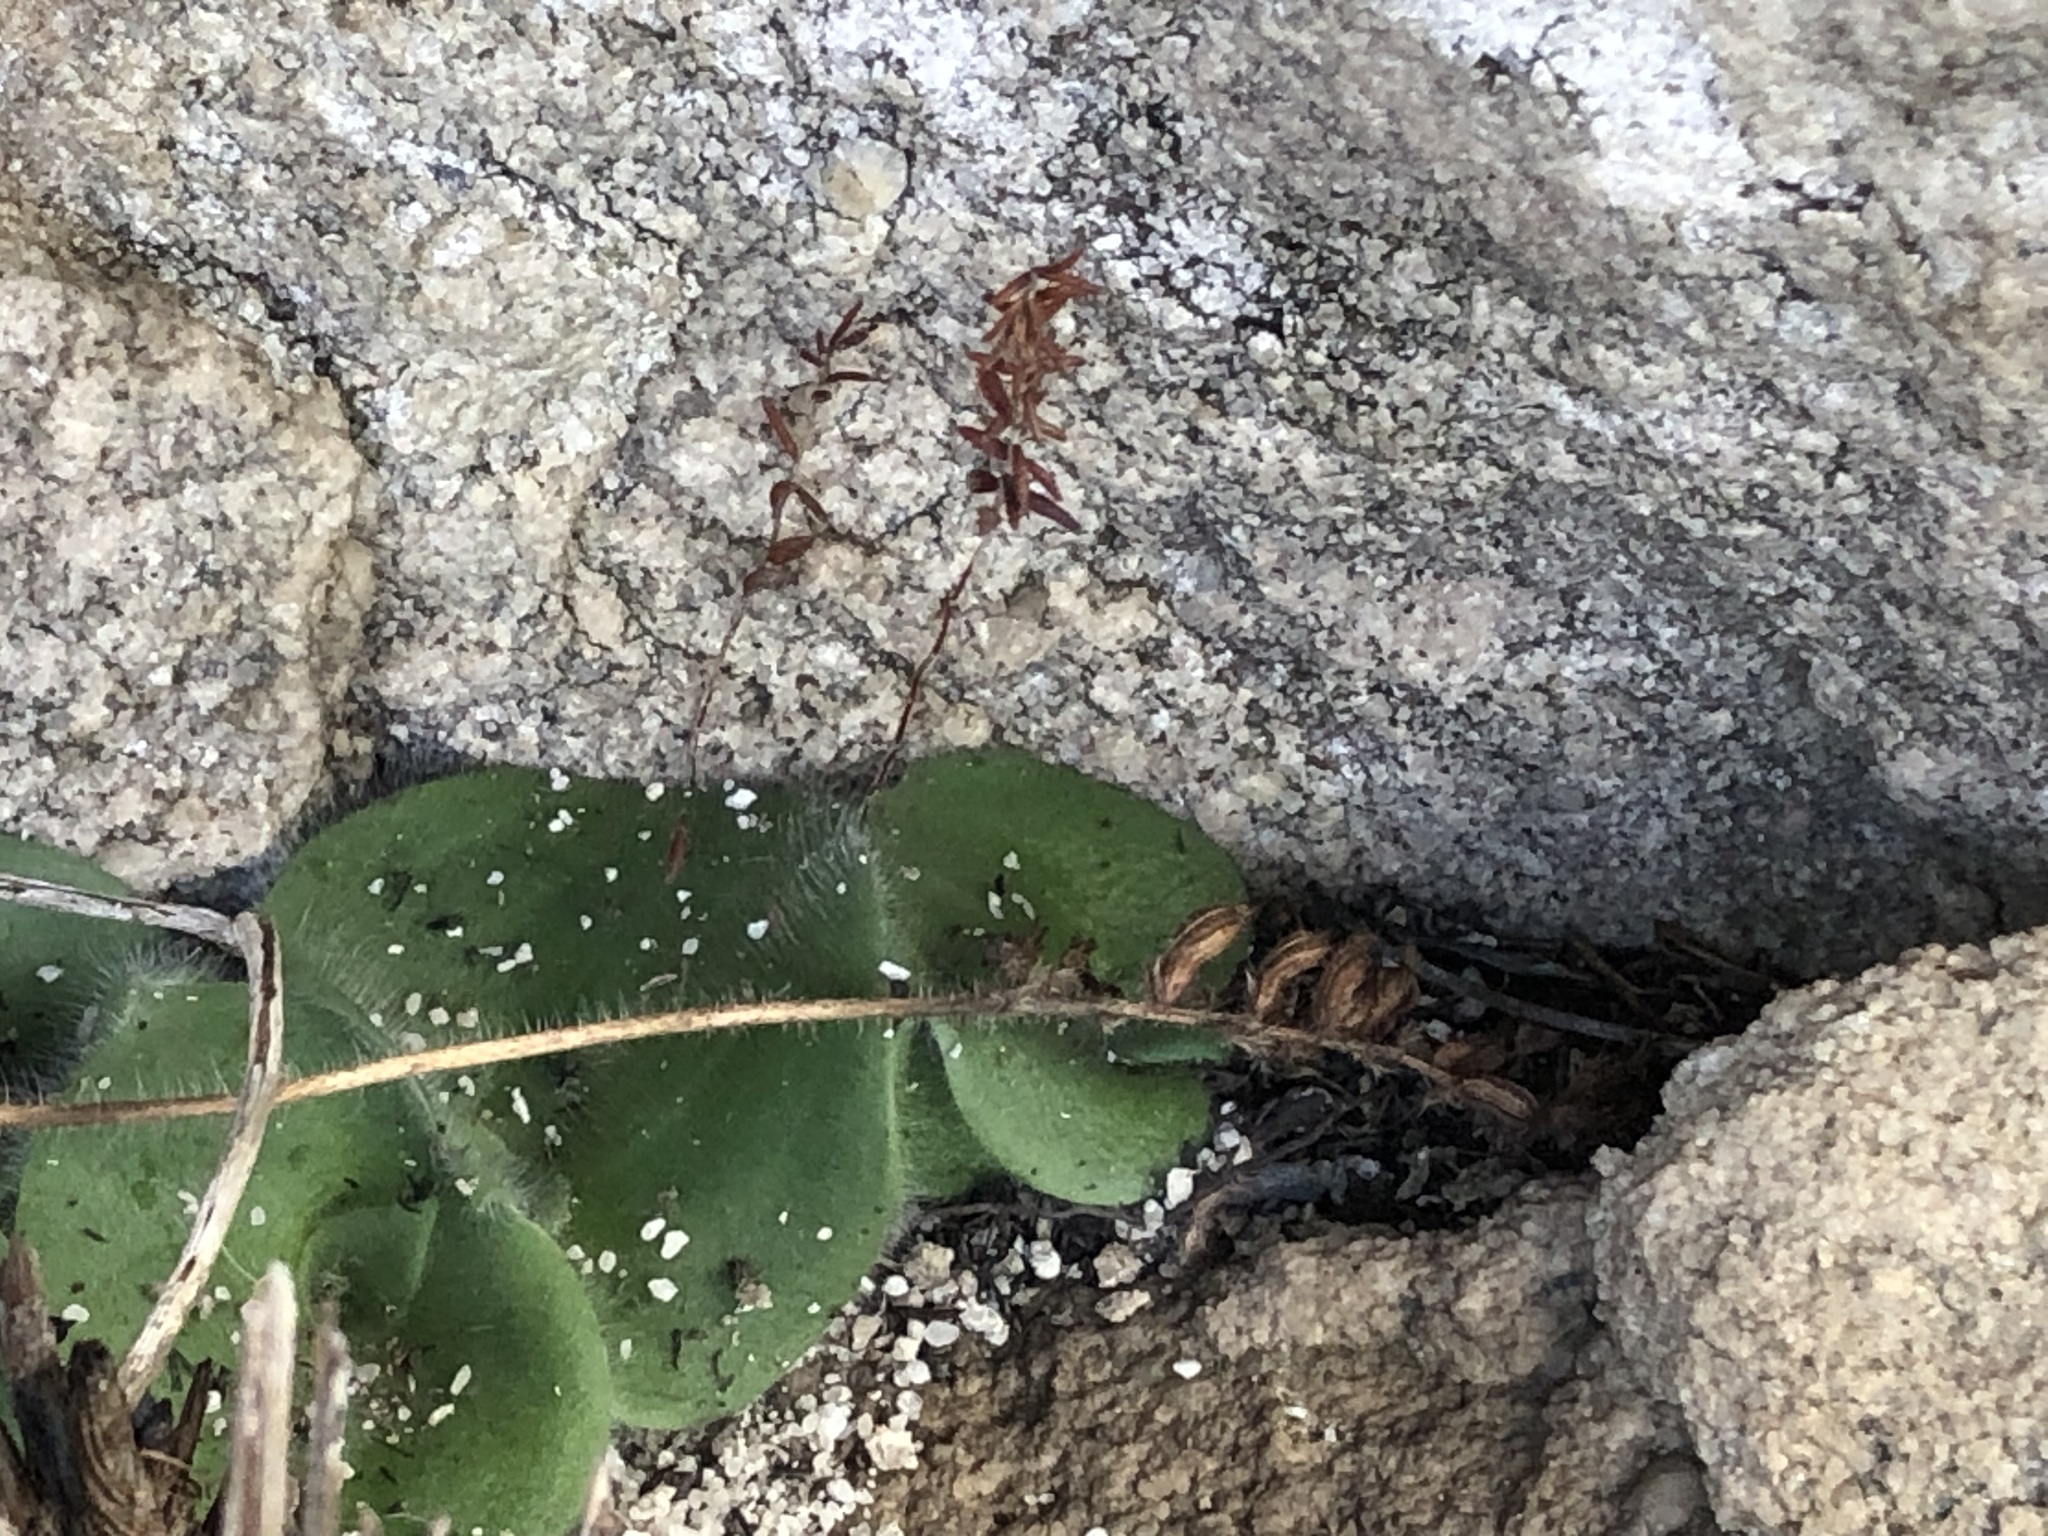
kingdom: Plantae
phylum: Tracheophyta
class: Liliopsida
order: Asparagales
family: Orchidaceae
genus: Holothrix
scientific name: Holothrix villosa
